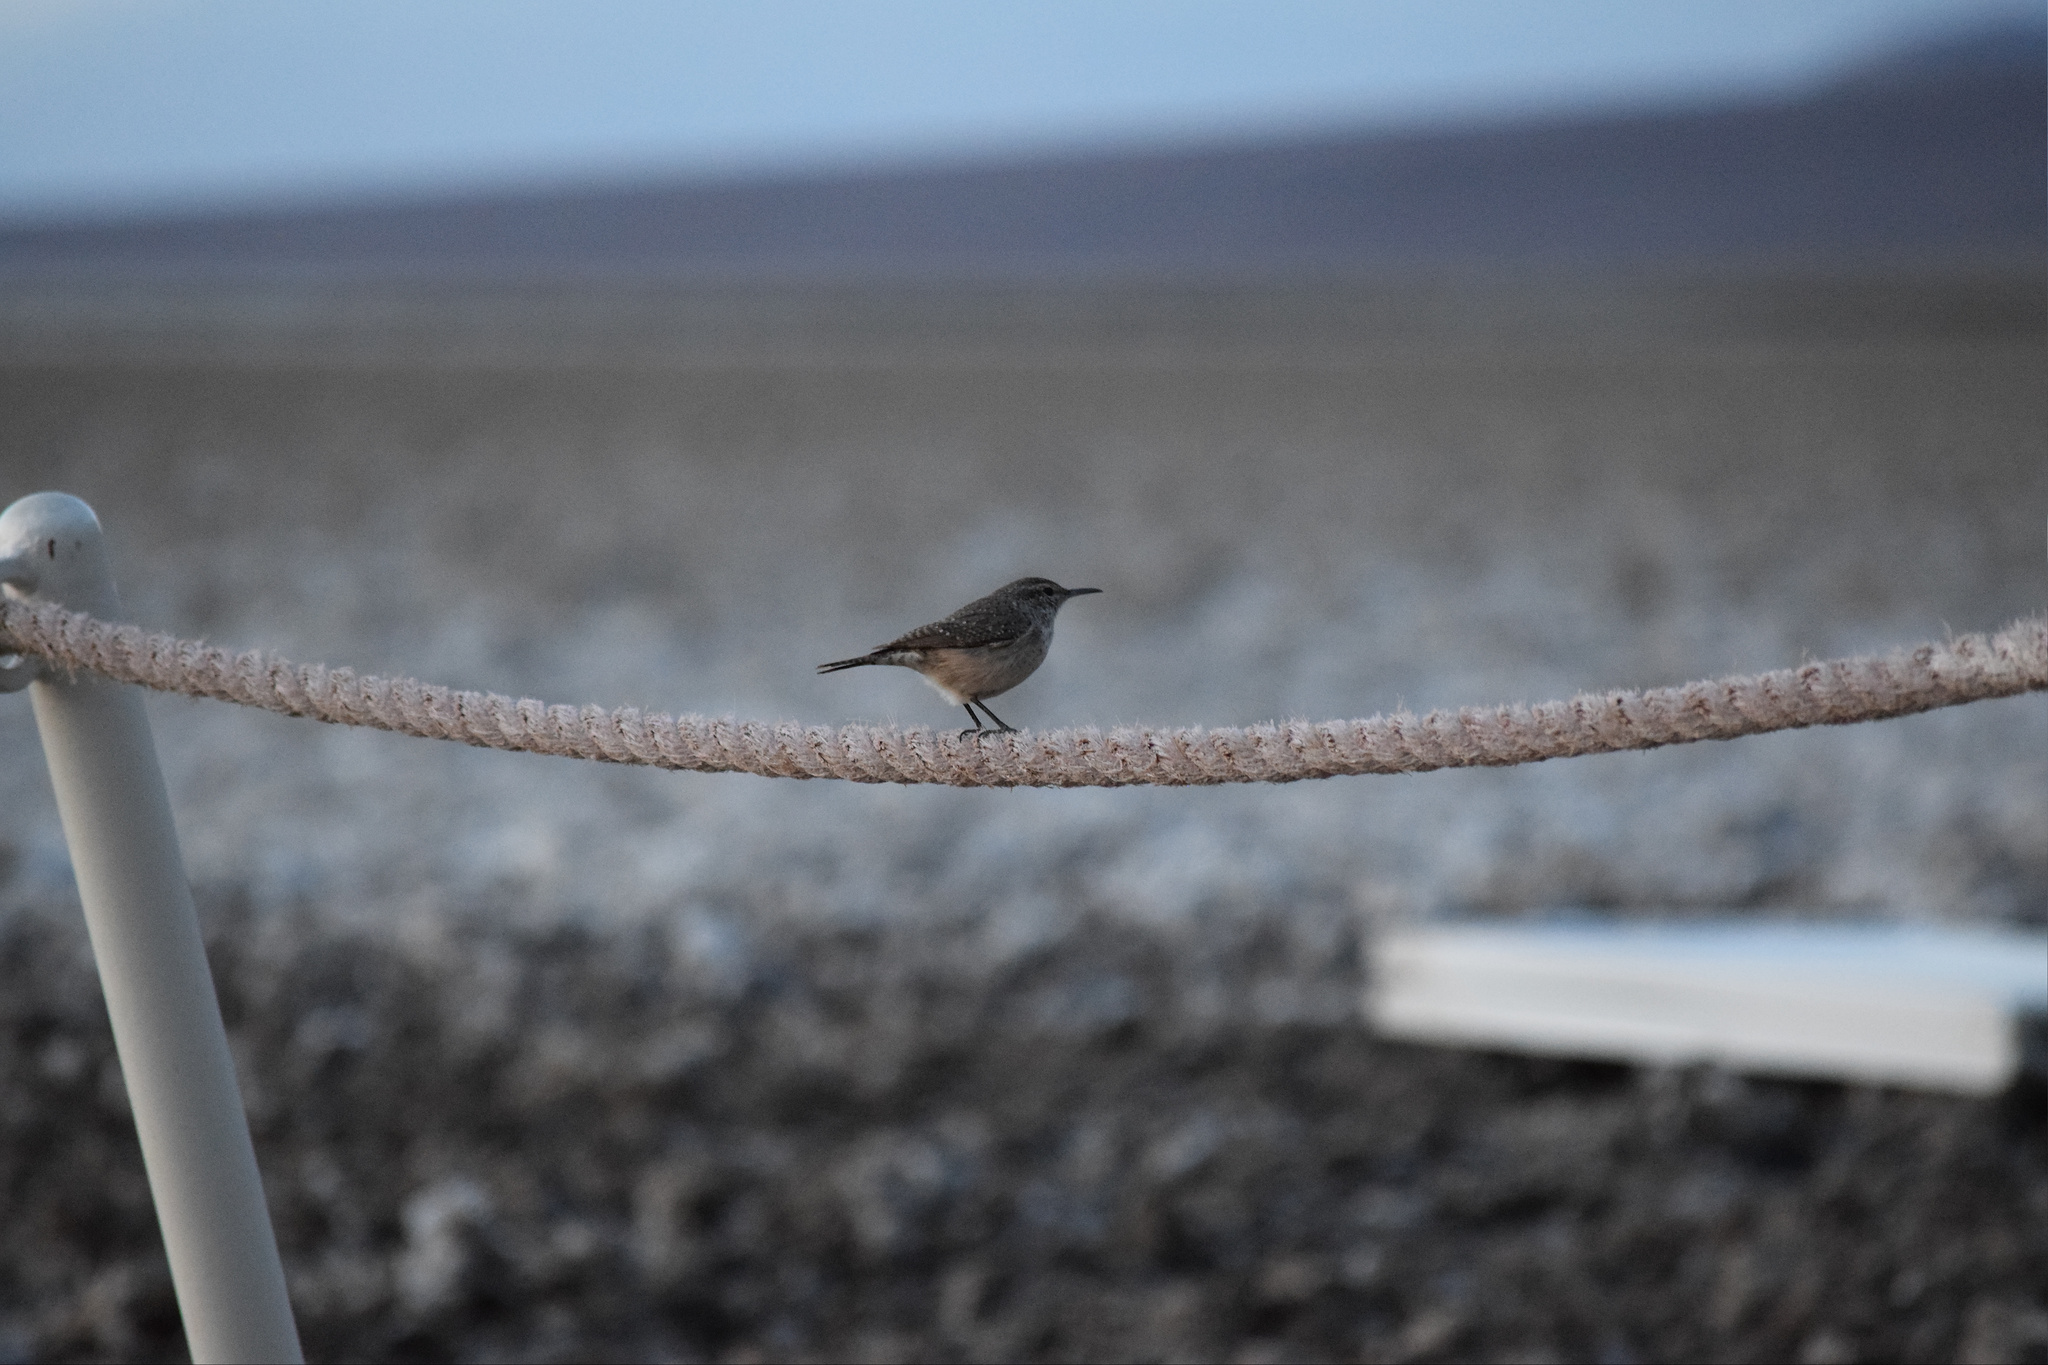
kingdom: Animalia
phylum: Chordata
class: Aves
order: Passeriformes
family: Troglodytidae
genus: Salpinctes
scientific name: Salpinctes obsoletus
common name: Rock wren
